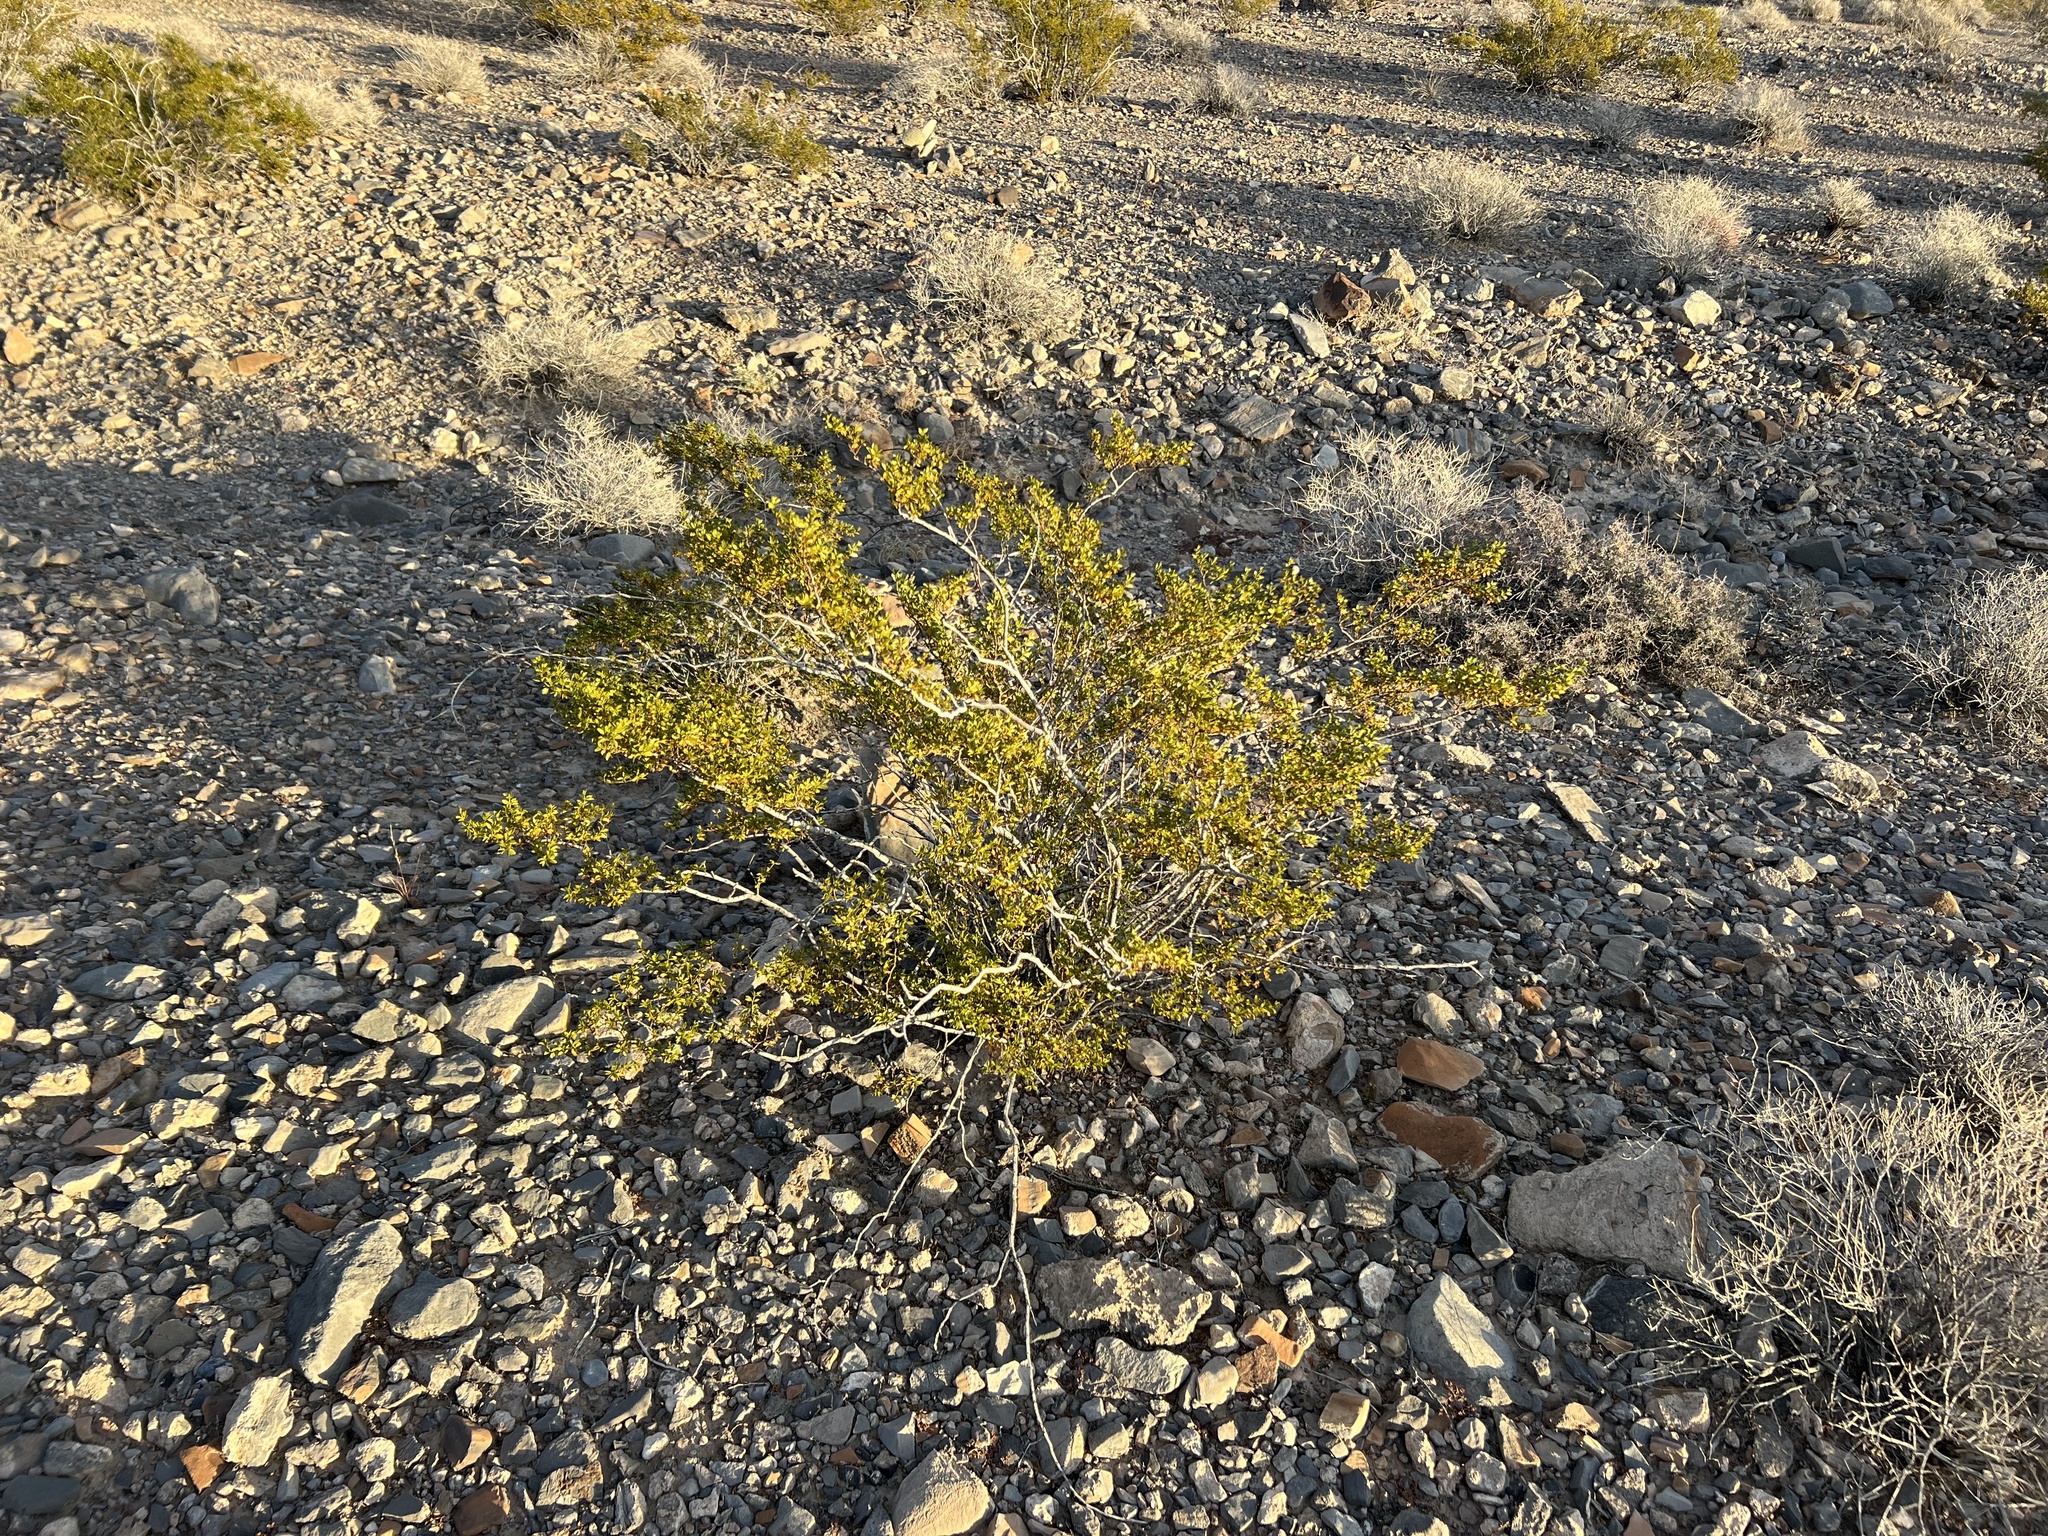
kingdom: Plantae
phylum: Tracheophyta
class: Magnoliopsida
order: Zygophyllales
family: Zygophyllaceae
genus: Larrea
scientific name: Larrea tridentata
